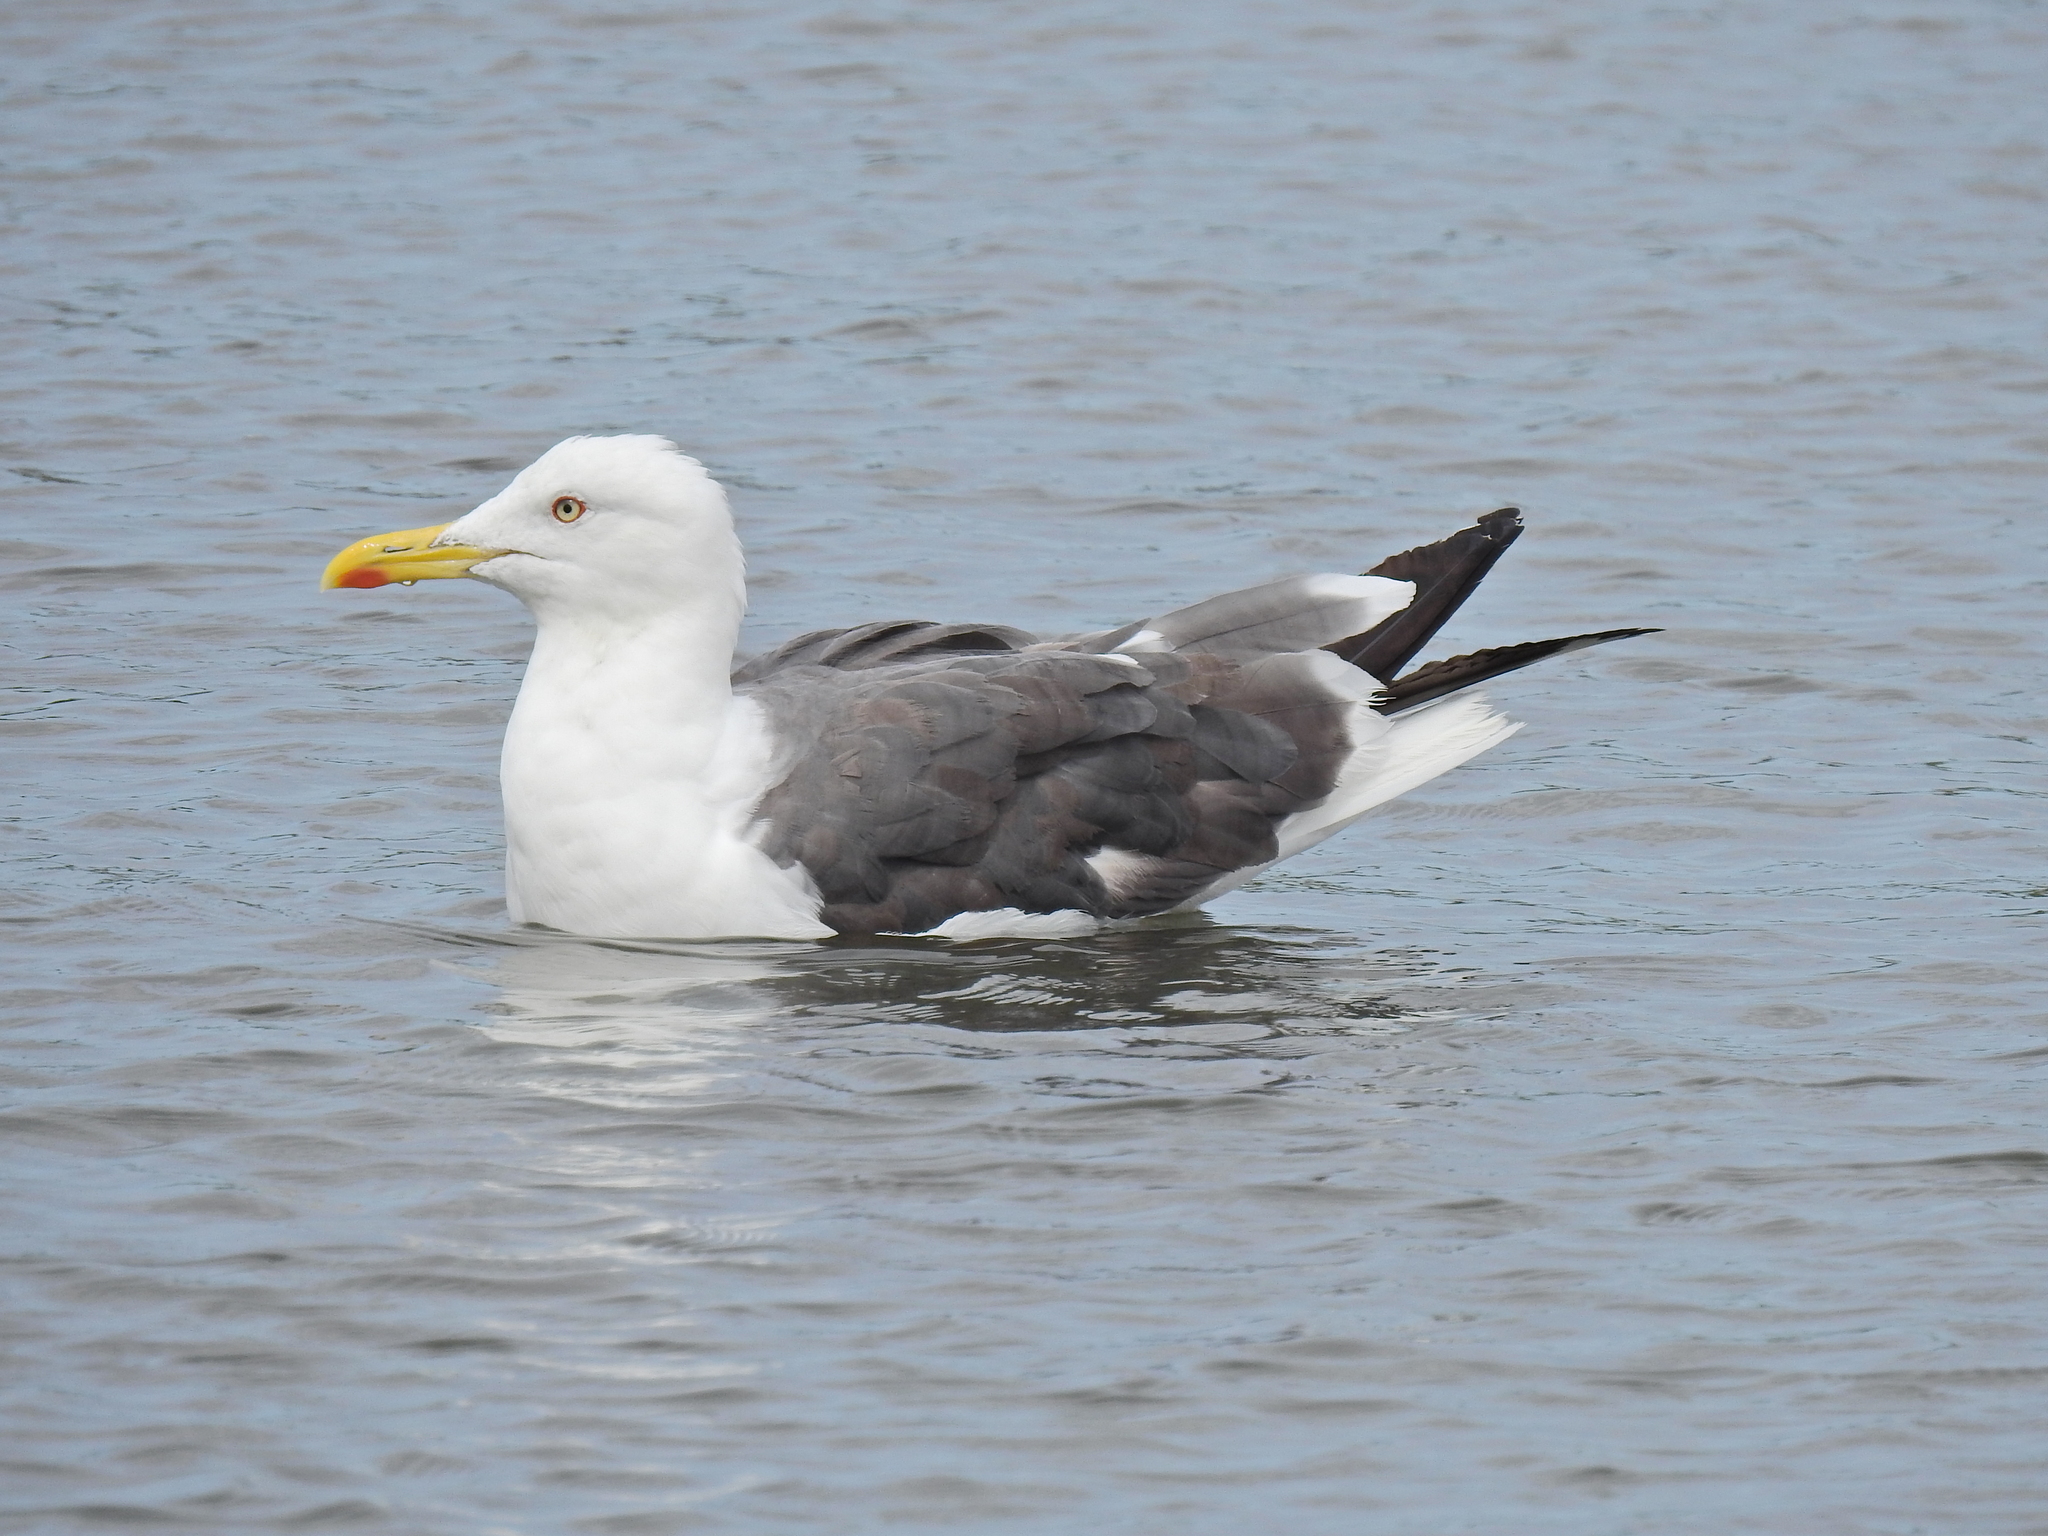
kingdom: Animalia
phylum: Chordata
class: Aves
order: Charadriiformes
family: Laridae
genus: Larus
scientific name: Larus fuscus
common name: Lesser black-backed gull
